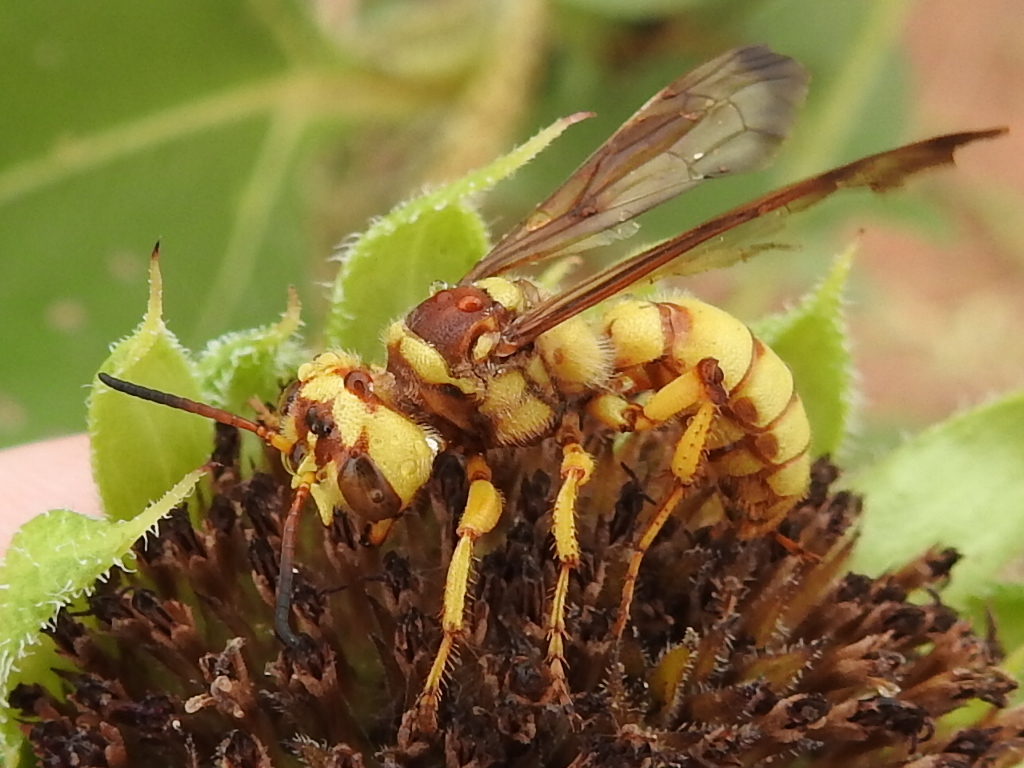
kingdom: Animalia
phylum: Arthropoda
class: Insecta
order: Hymenoptera
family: Crabronidae
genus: Cerceris
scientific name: Cerceris frontata
